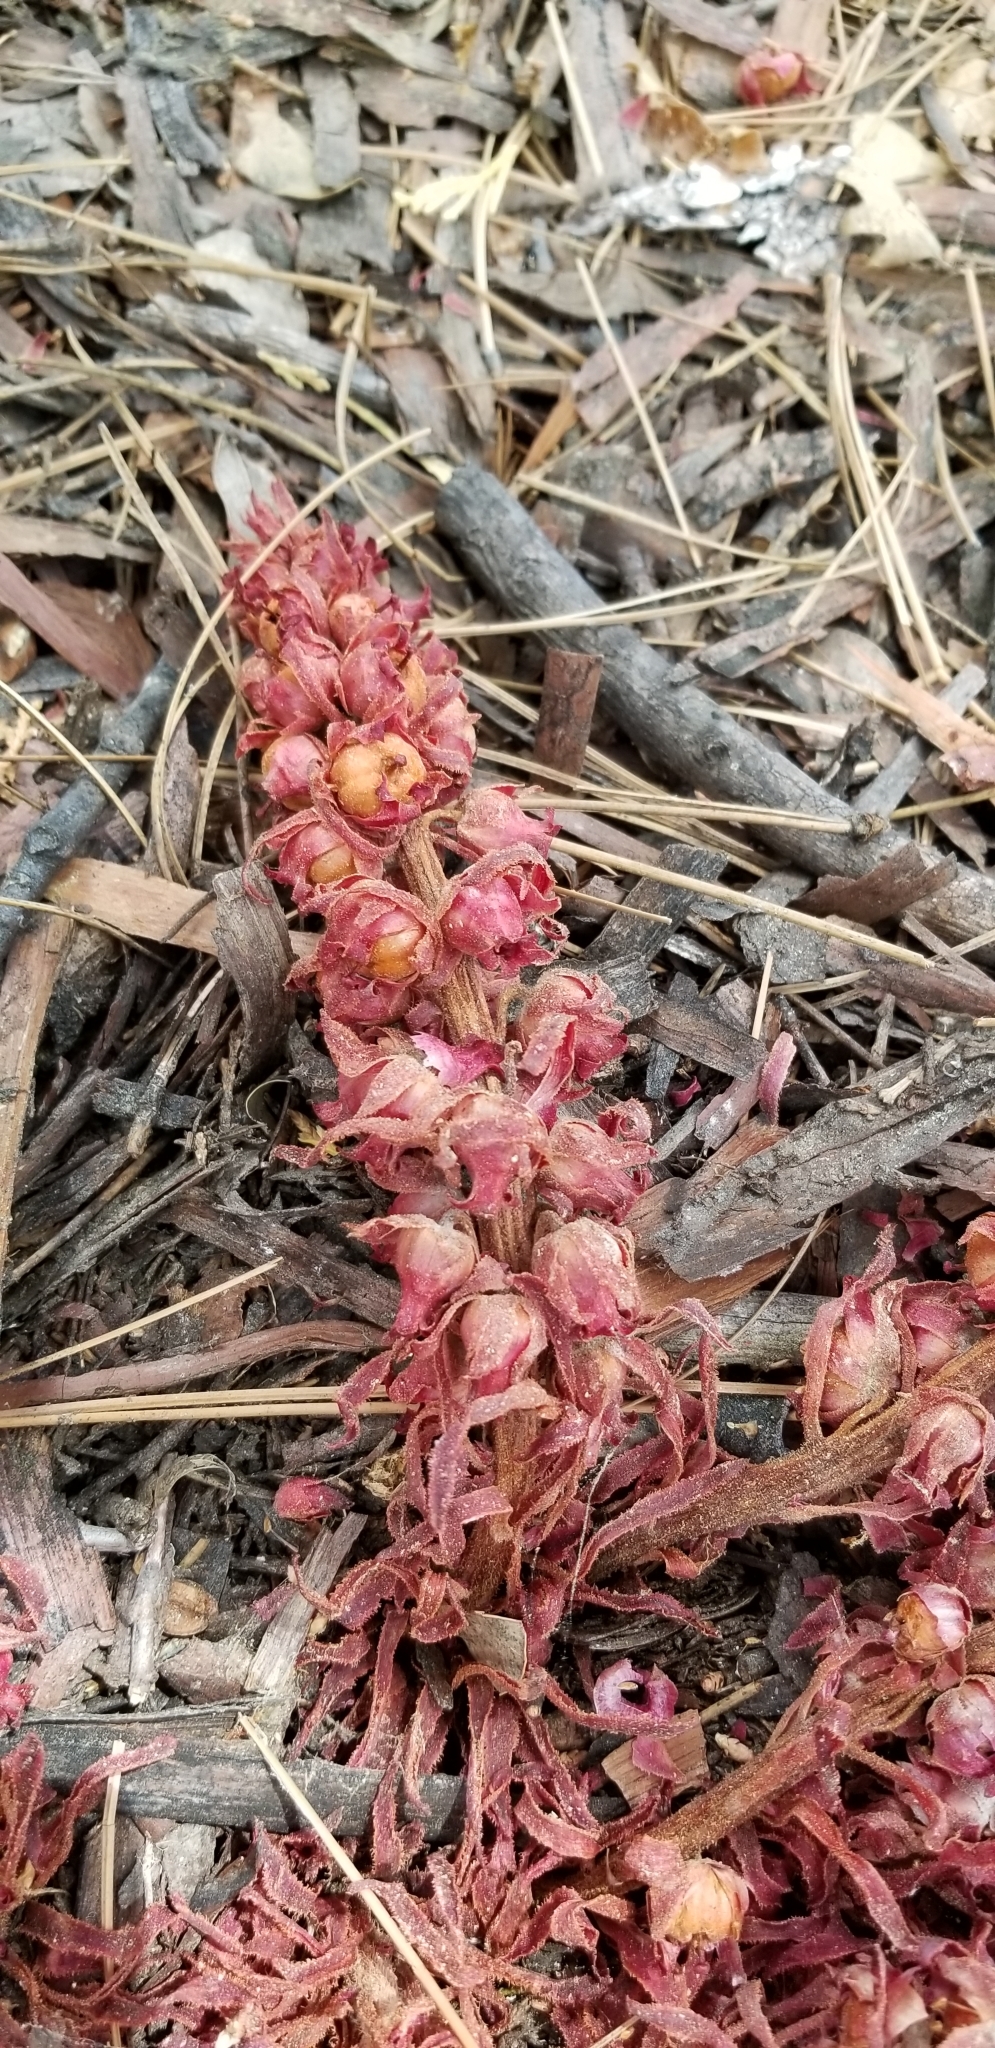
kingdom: Plantae
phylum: Tracheophyta
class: Magnoliopsida
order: Ericales
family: Ericaceae
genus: Sarcodes
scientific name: Sarcodes sanguinea
